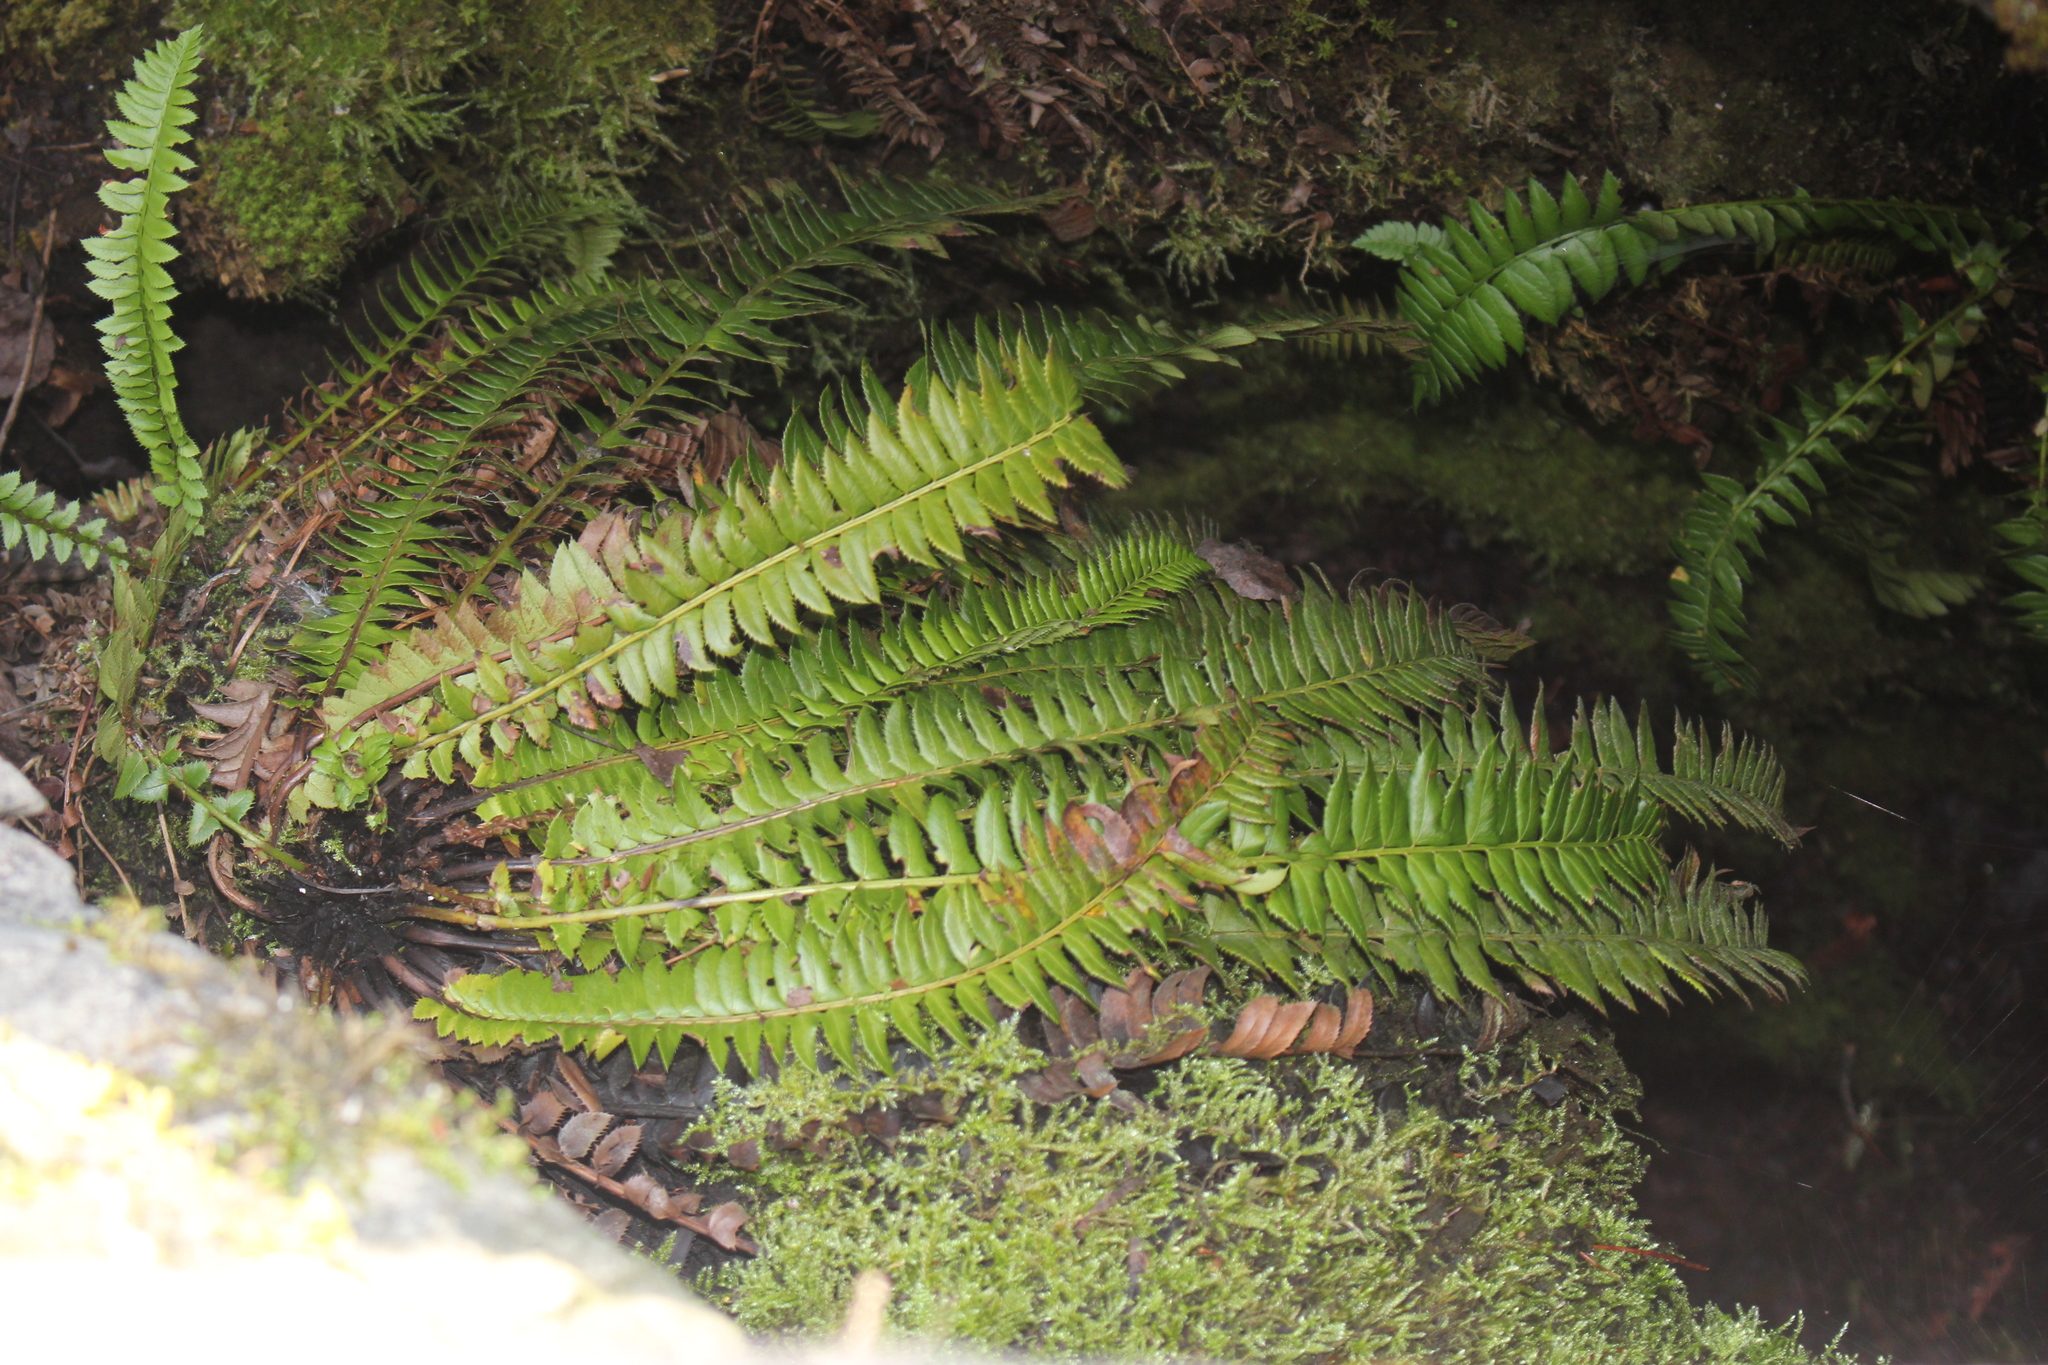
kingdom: Plantae
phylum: Tracheophyta
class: Polypodiopsida
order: Polypodiales
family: Dryopteridaceae
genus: Polystichum
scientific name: Polystichum lonchitis
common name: Holly fern
